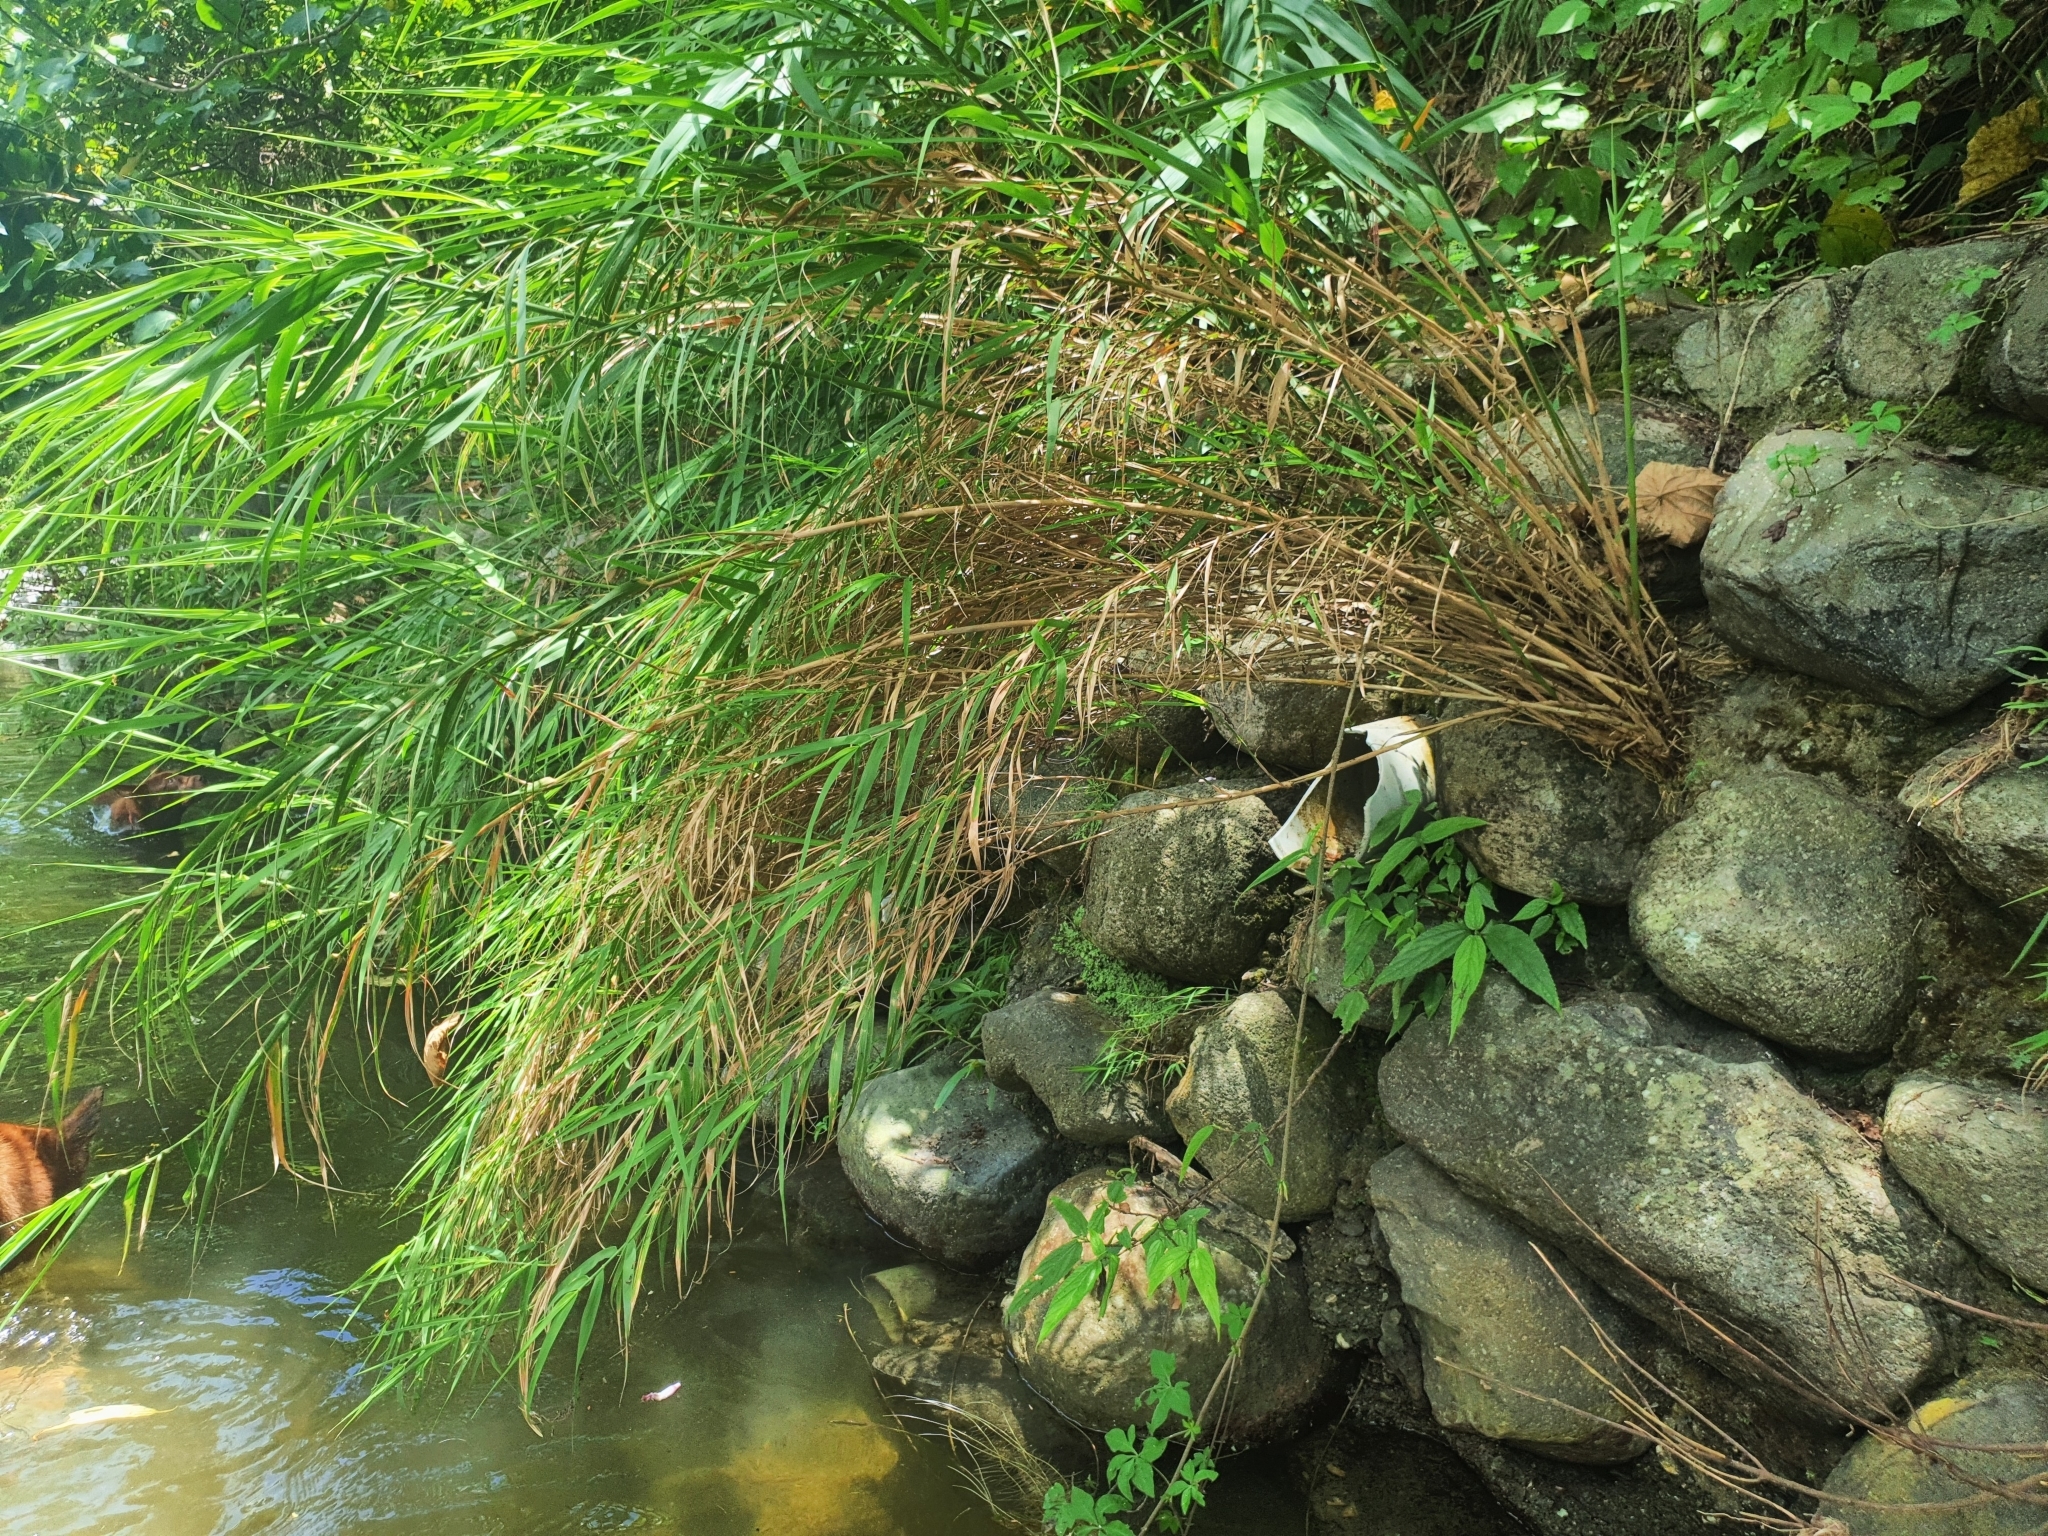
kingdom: Plantae
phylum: Tracheophyta
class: Liliopsida
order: Poales
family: Poaceae
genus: Arundo
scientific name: Arundo formosana
